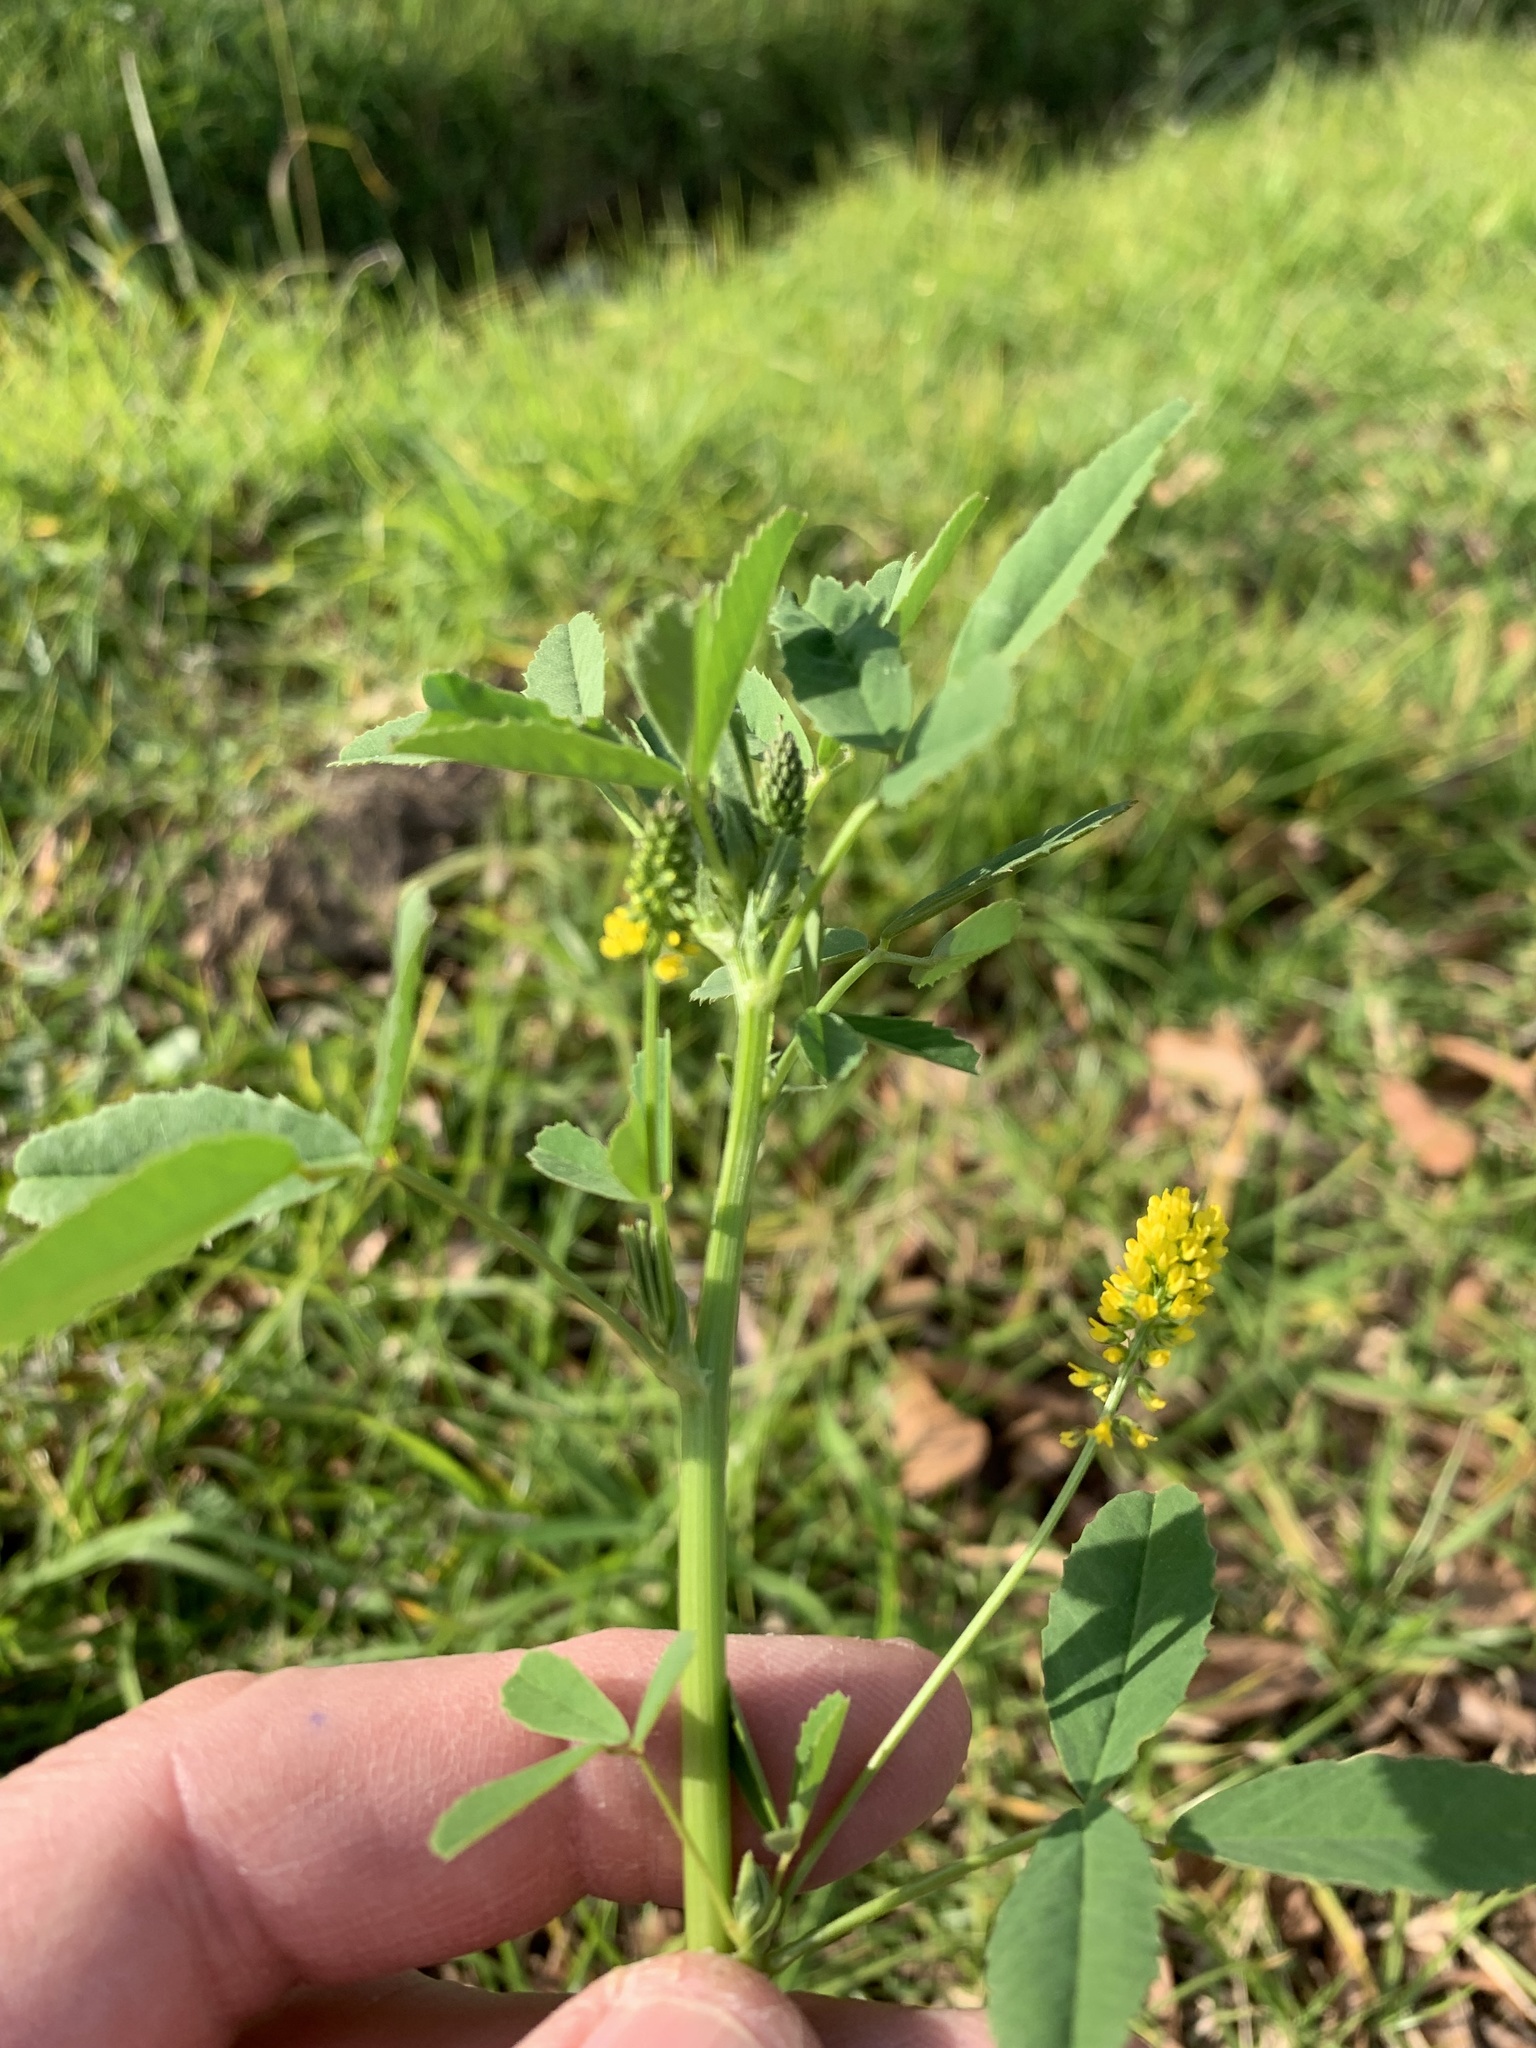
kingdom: Plantae
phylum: Tracheophyta
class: Magnoliopsida
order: Fabales
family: Fabaceae
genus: Melilotus
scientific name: Melilotus indicus
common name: Small melilot
